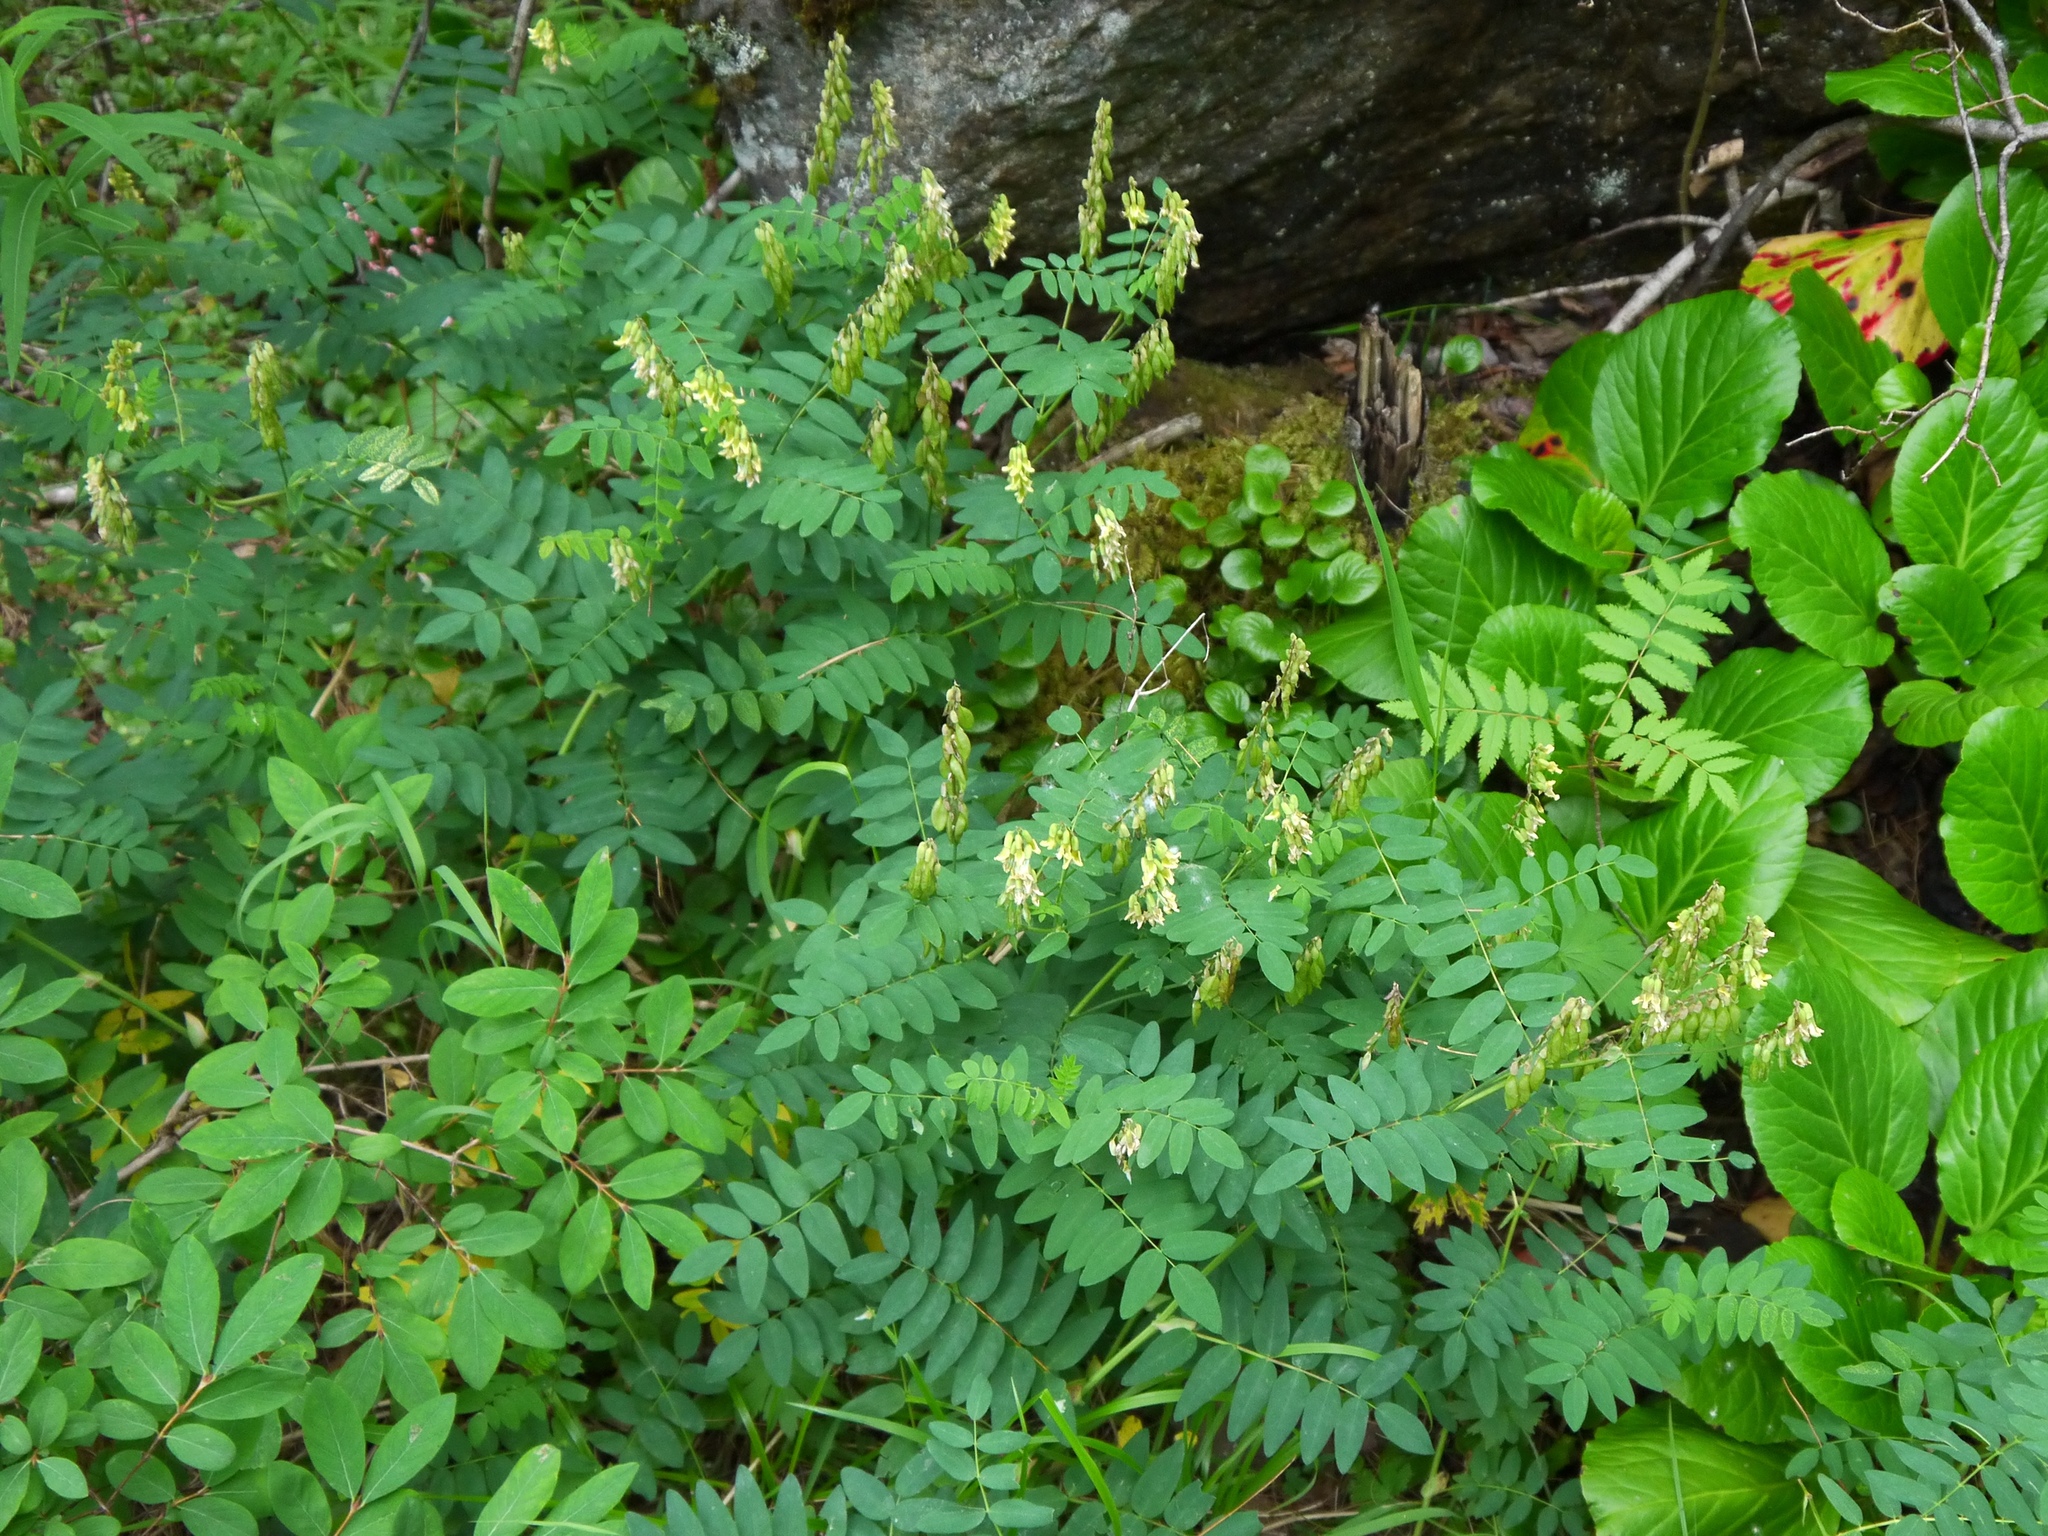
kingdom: Plantae
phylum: Tracheophyta
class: Magnoliopsida
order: Fabales
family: Fabaceae
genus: Astragalus
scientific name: Astragalus frigidus
